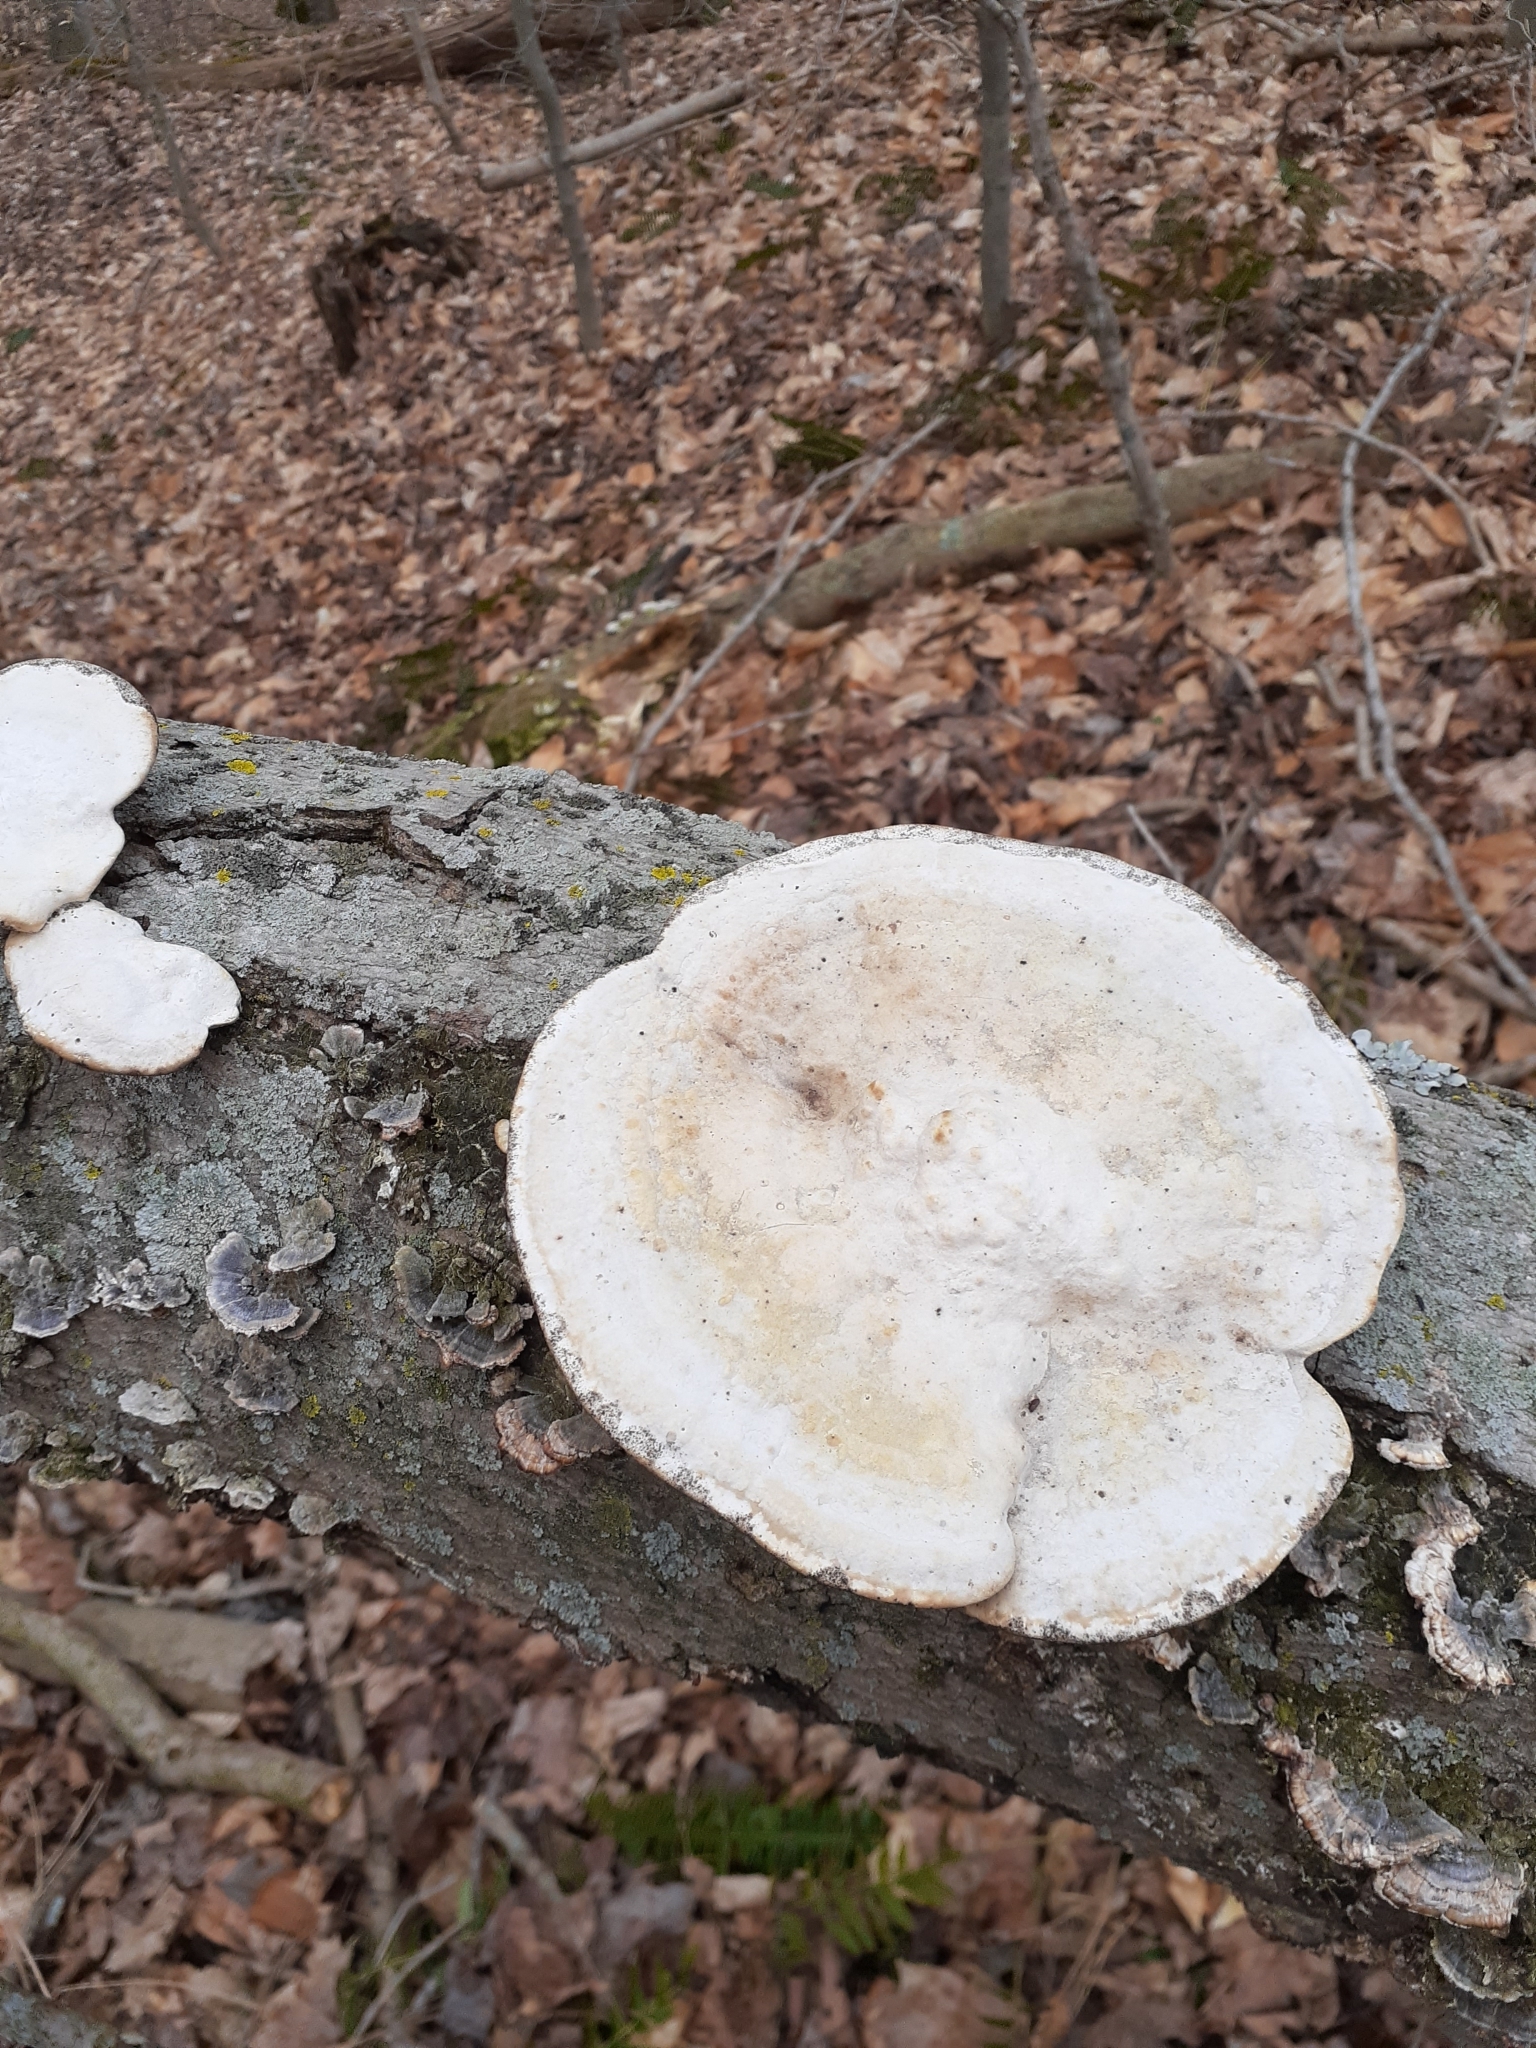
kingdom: Fungi
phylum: Basidiomycota
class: Agaricomycetes
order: Polyporales
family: Polyporaceae
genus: Trametes
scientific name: Trametes gibbosa
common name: Lumpy bracket
